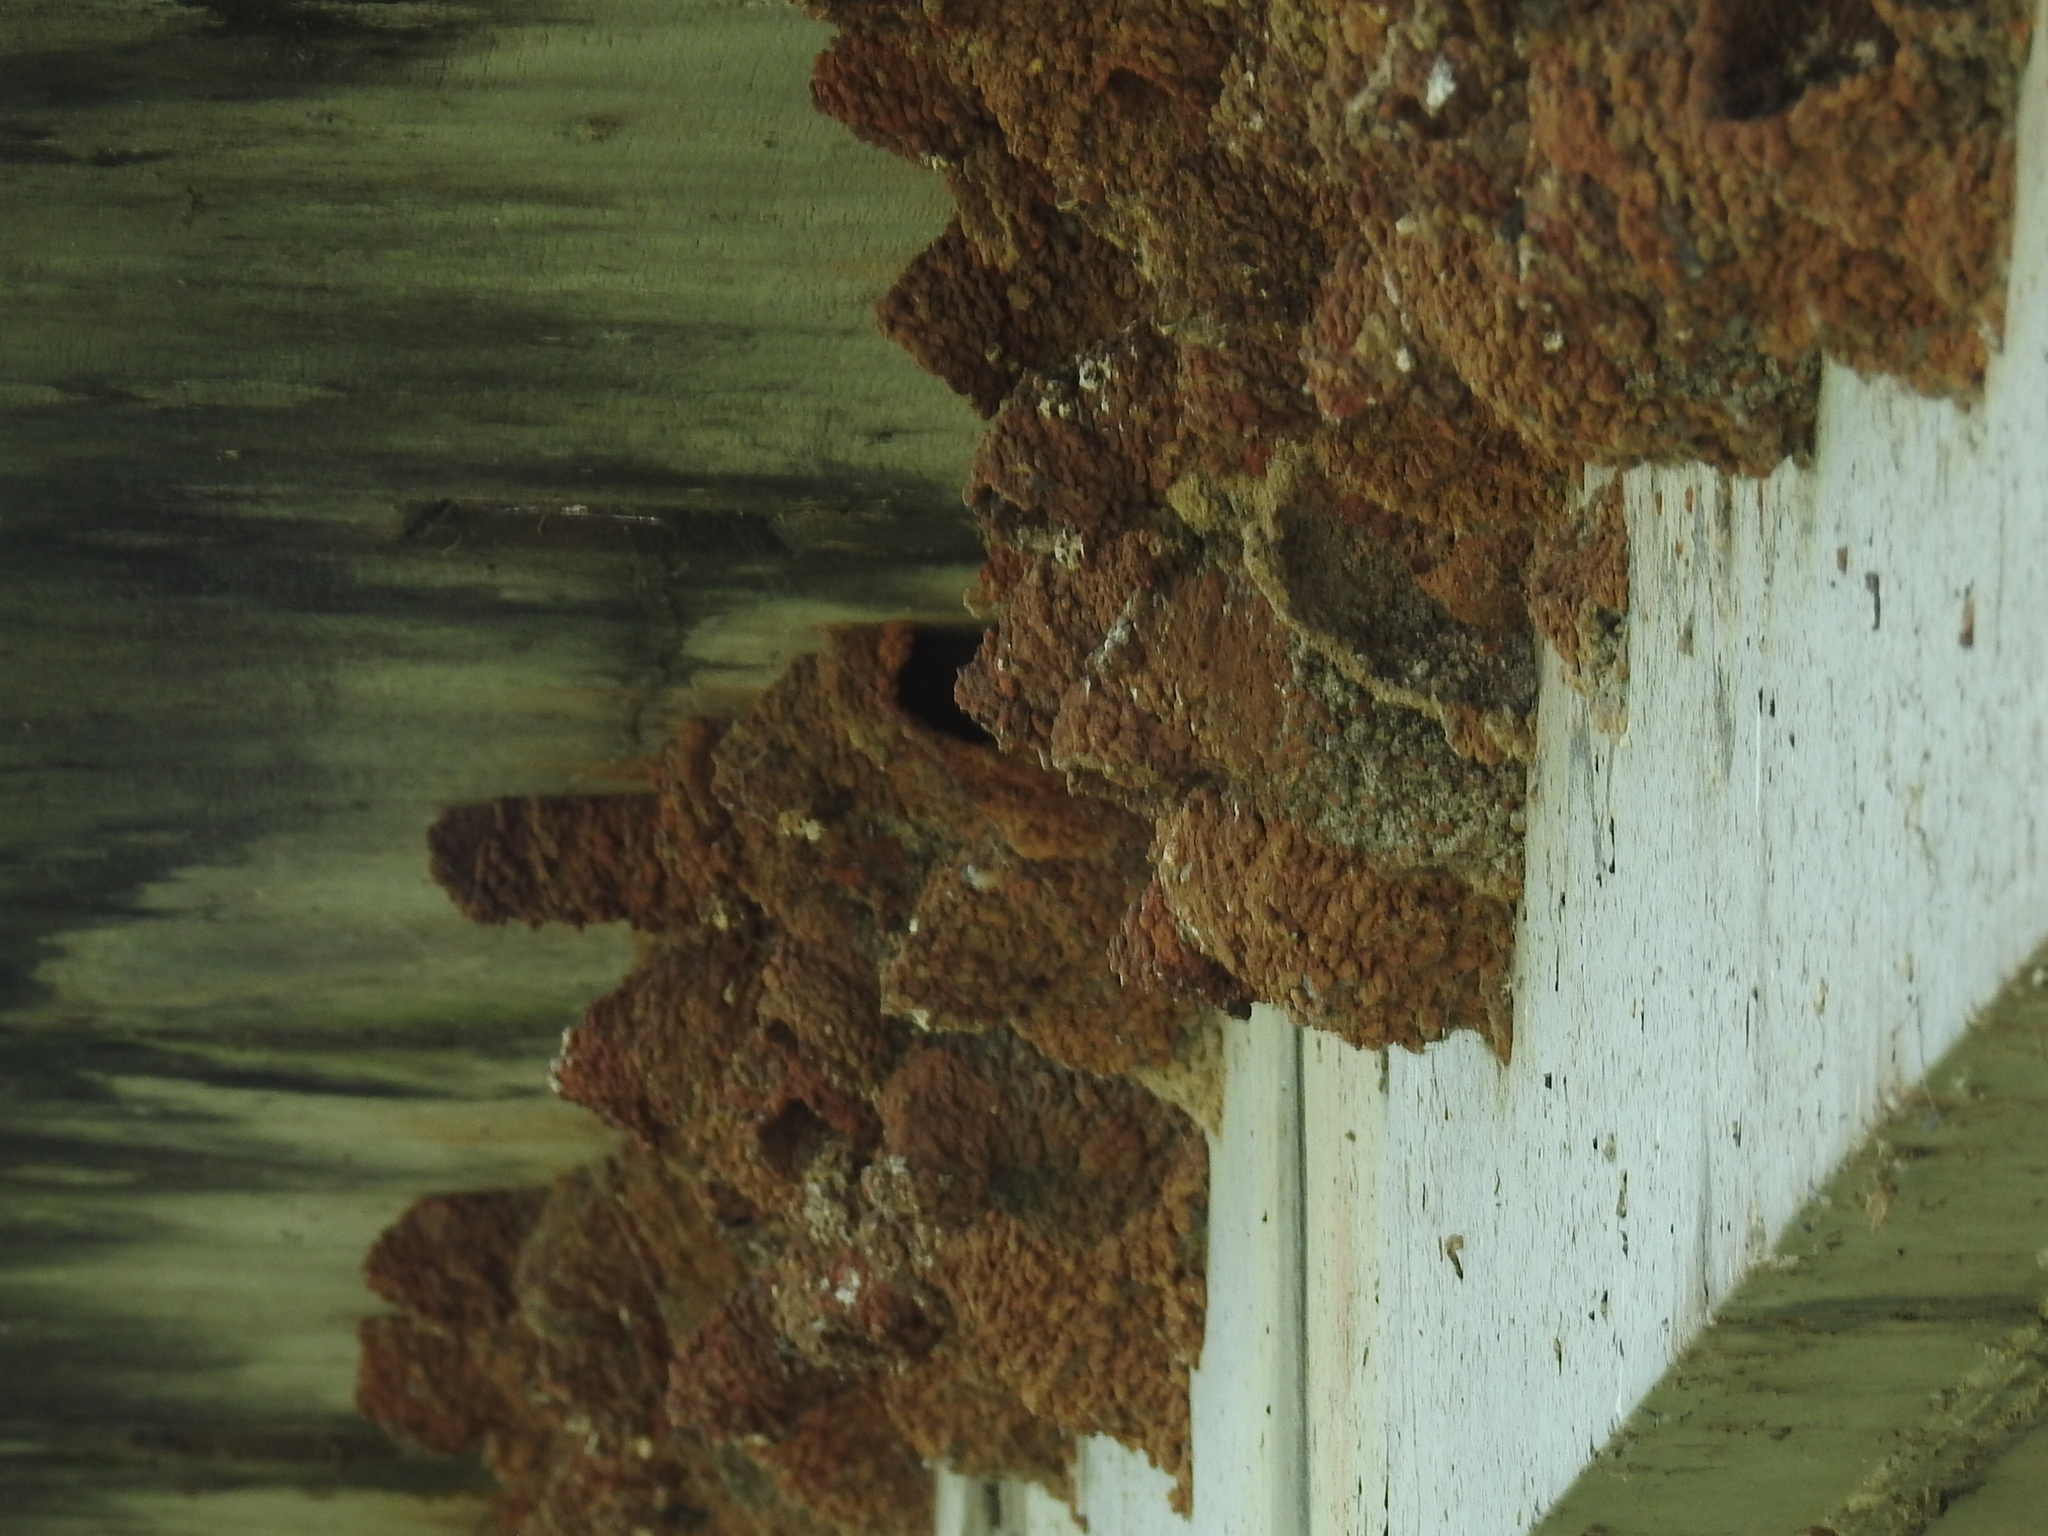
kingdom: Animalia
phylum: Chordata
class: Aves
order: Passeriformes
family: Hirundinidae
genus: Petrochelidon
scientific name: Petrochelidon pyrrhonota
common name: American cliff swallow
